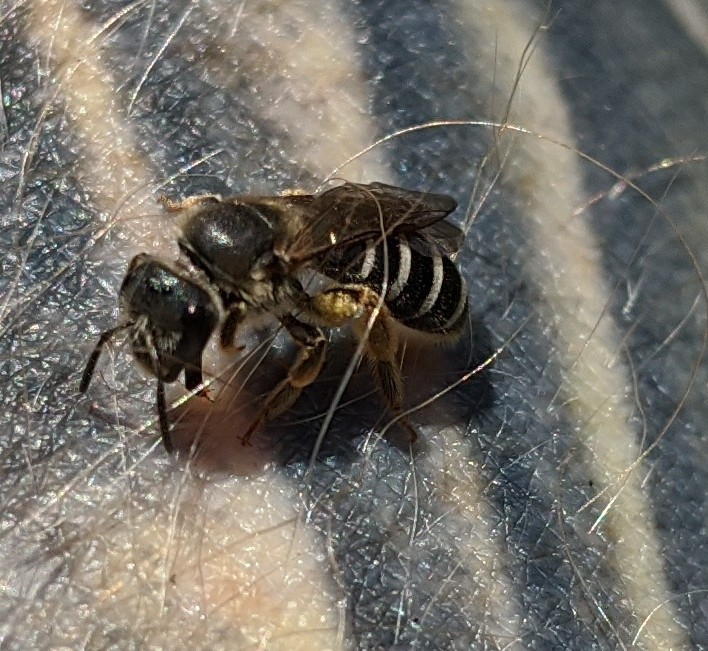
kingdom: Animalia
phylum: Arthropoda
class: Insecta
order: Hymenoptera
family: Halictidae
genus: Halictus
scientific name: Halictus rubicundus
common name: Orange-legged furrow bee
